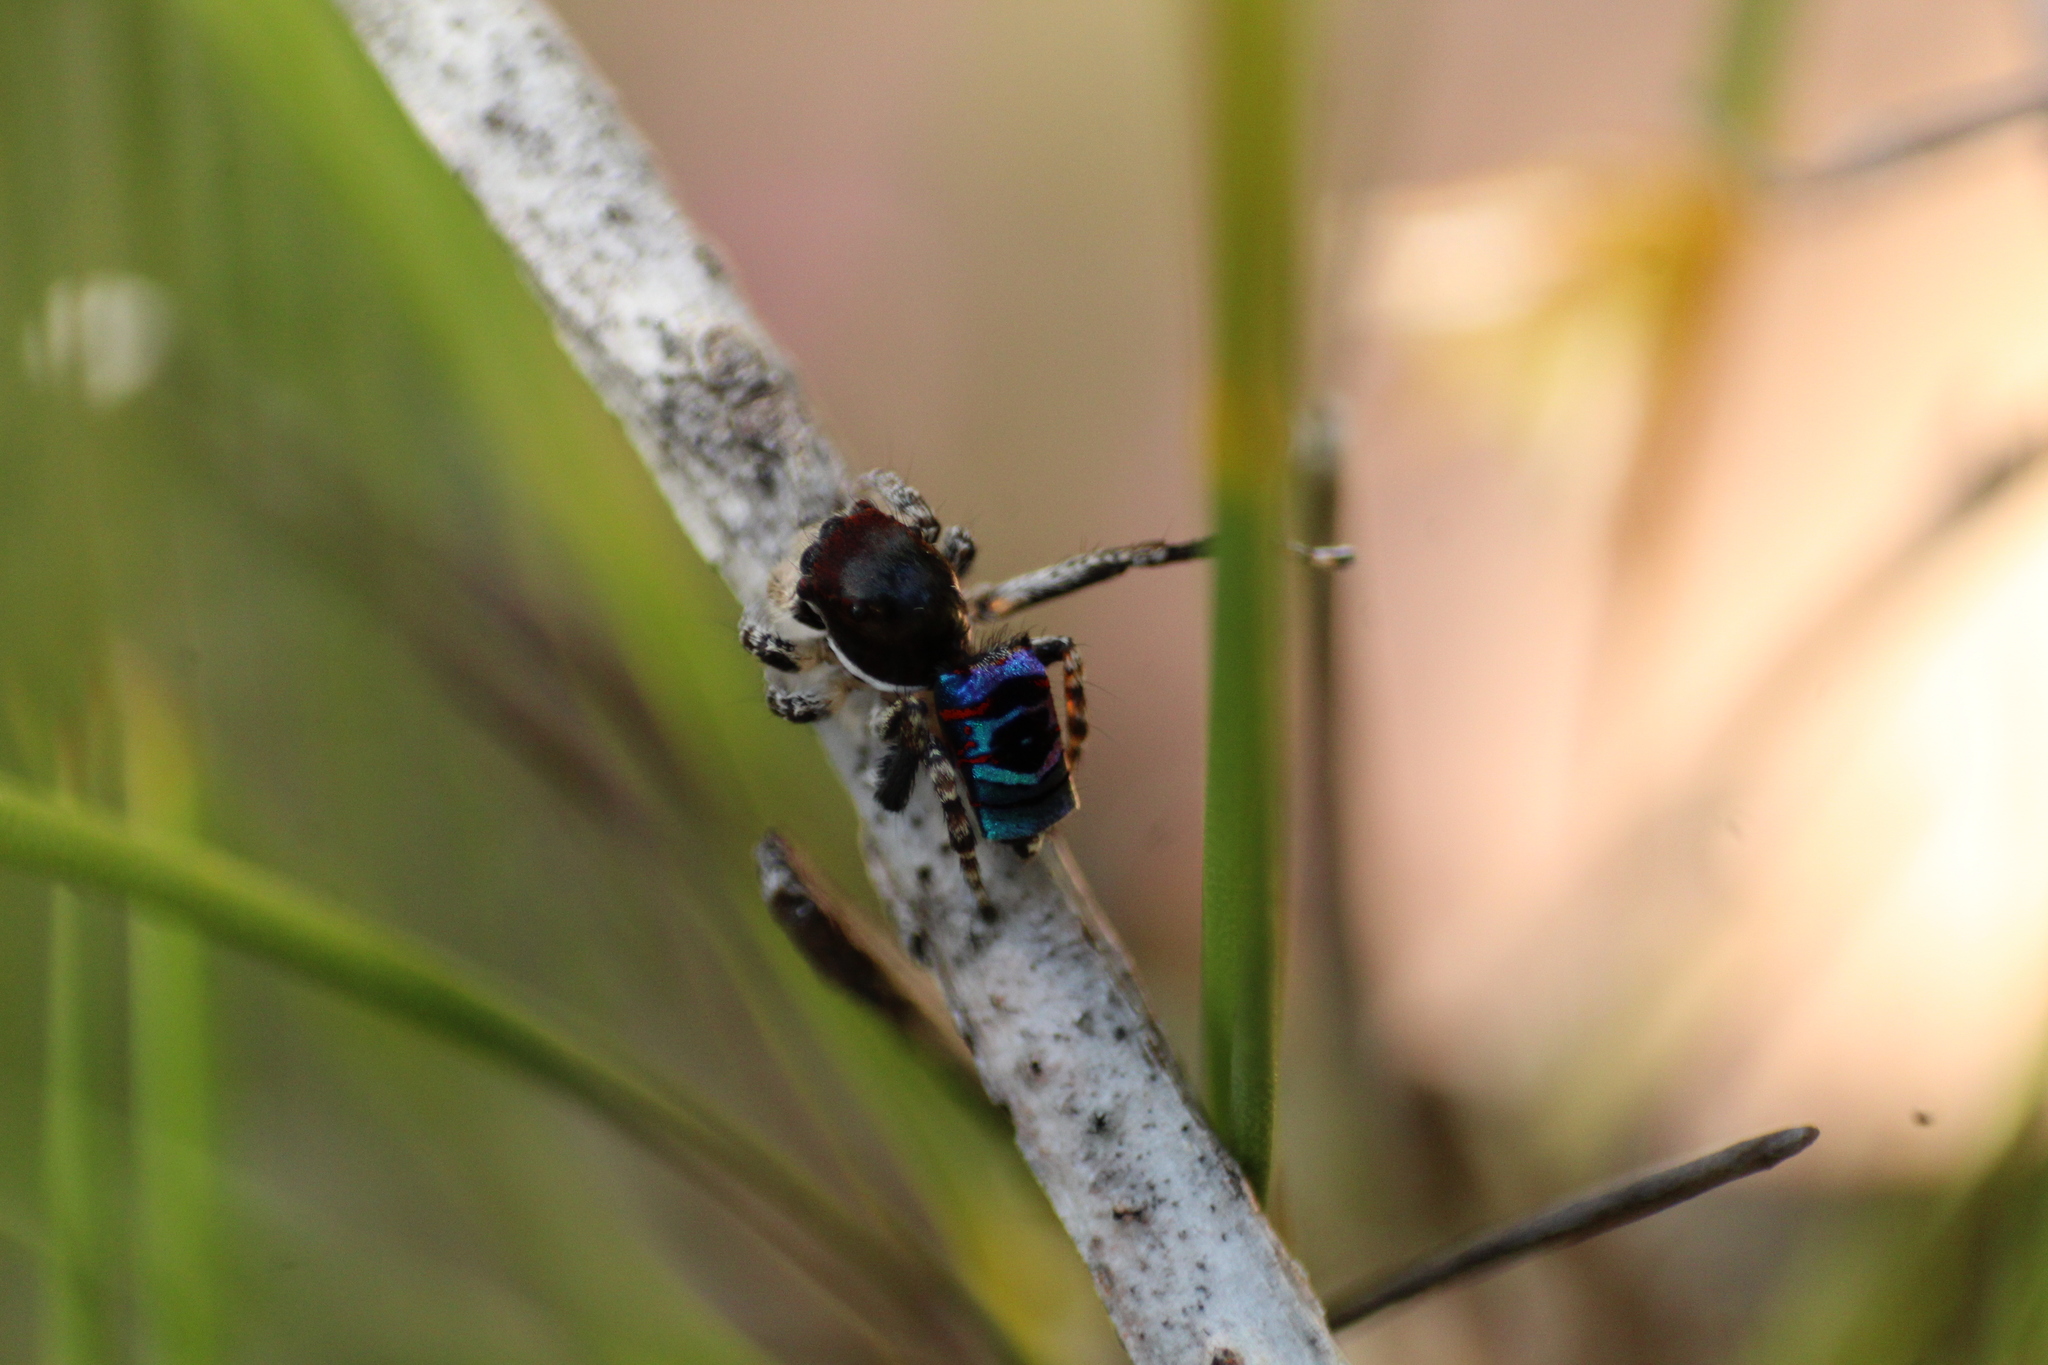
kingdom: Animalia
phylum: Arthropoda
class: Arachnida
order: Araneae
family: Salticidae
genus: Maratus
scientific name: Maratus karrie
